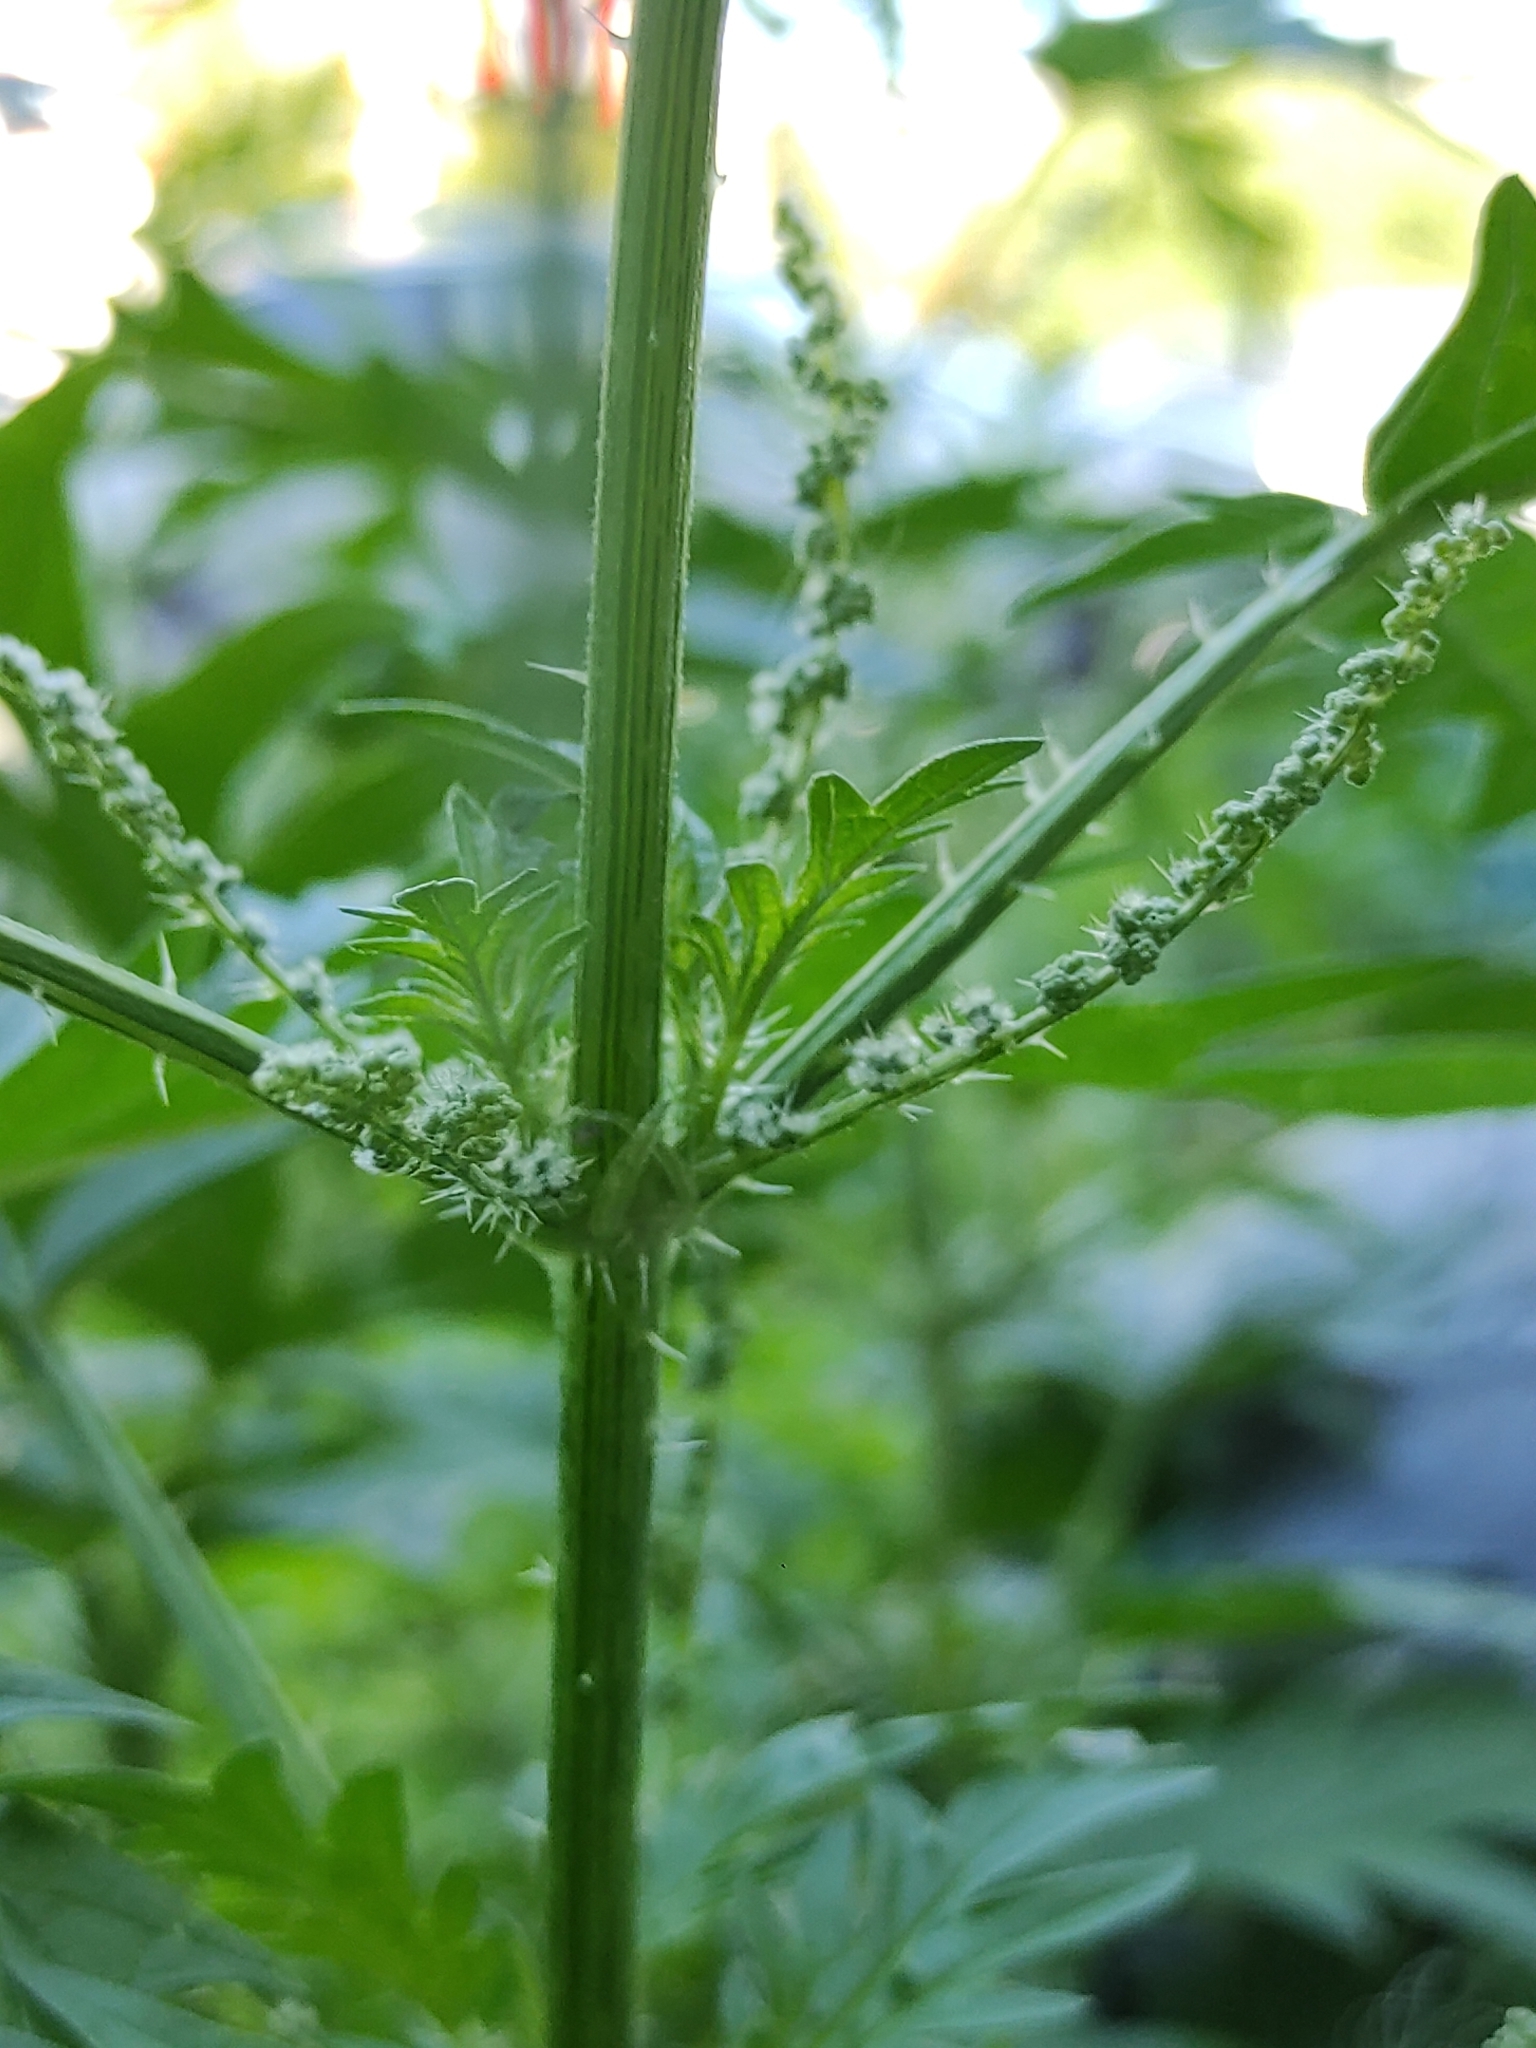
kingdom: Plantae
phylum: Tracheophyta
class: Magnoliopsida
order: Rosales
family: Urticaceae
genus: Urtica
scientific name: Urtica cannabina
